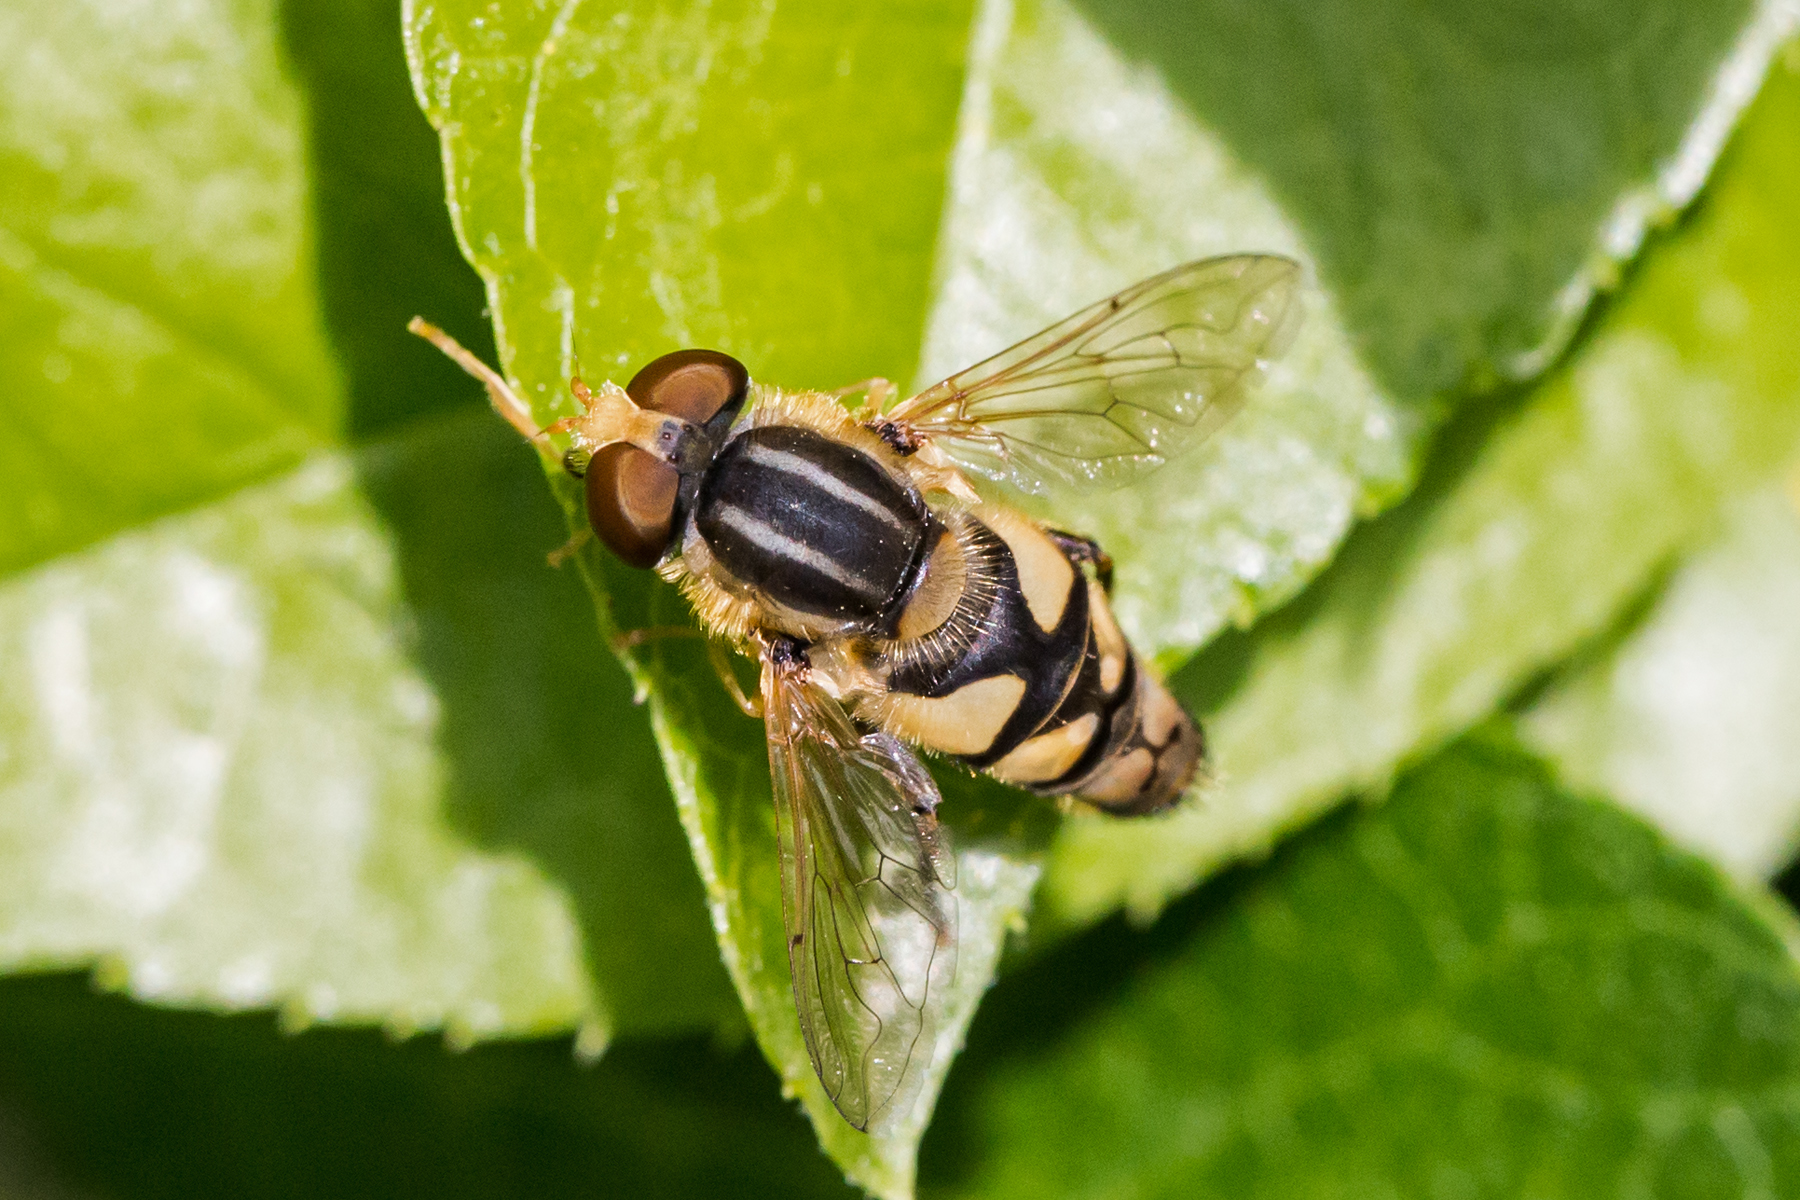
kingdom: Animalia
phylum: Arthropoda
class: Insecta
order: Diptera
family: Syrphidae
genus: Parhelophilus
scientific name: Parhelophilus integer
